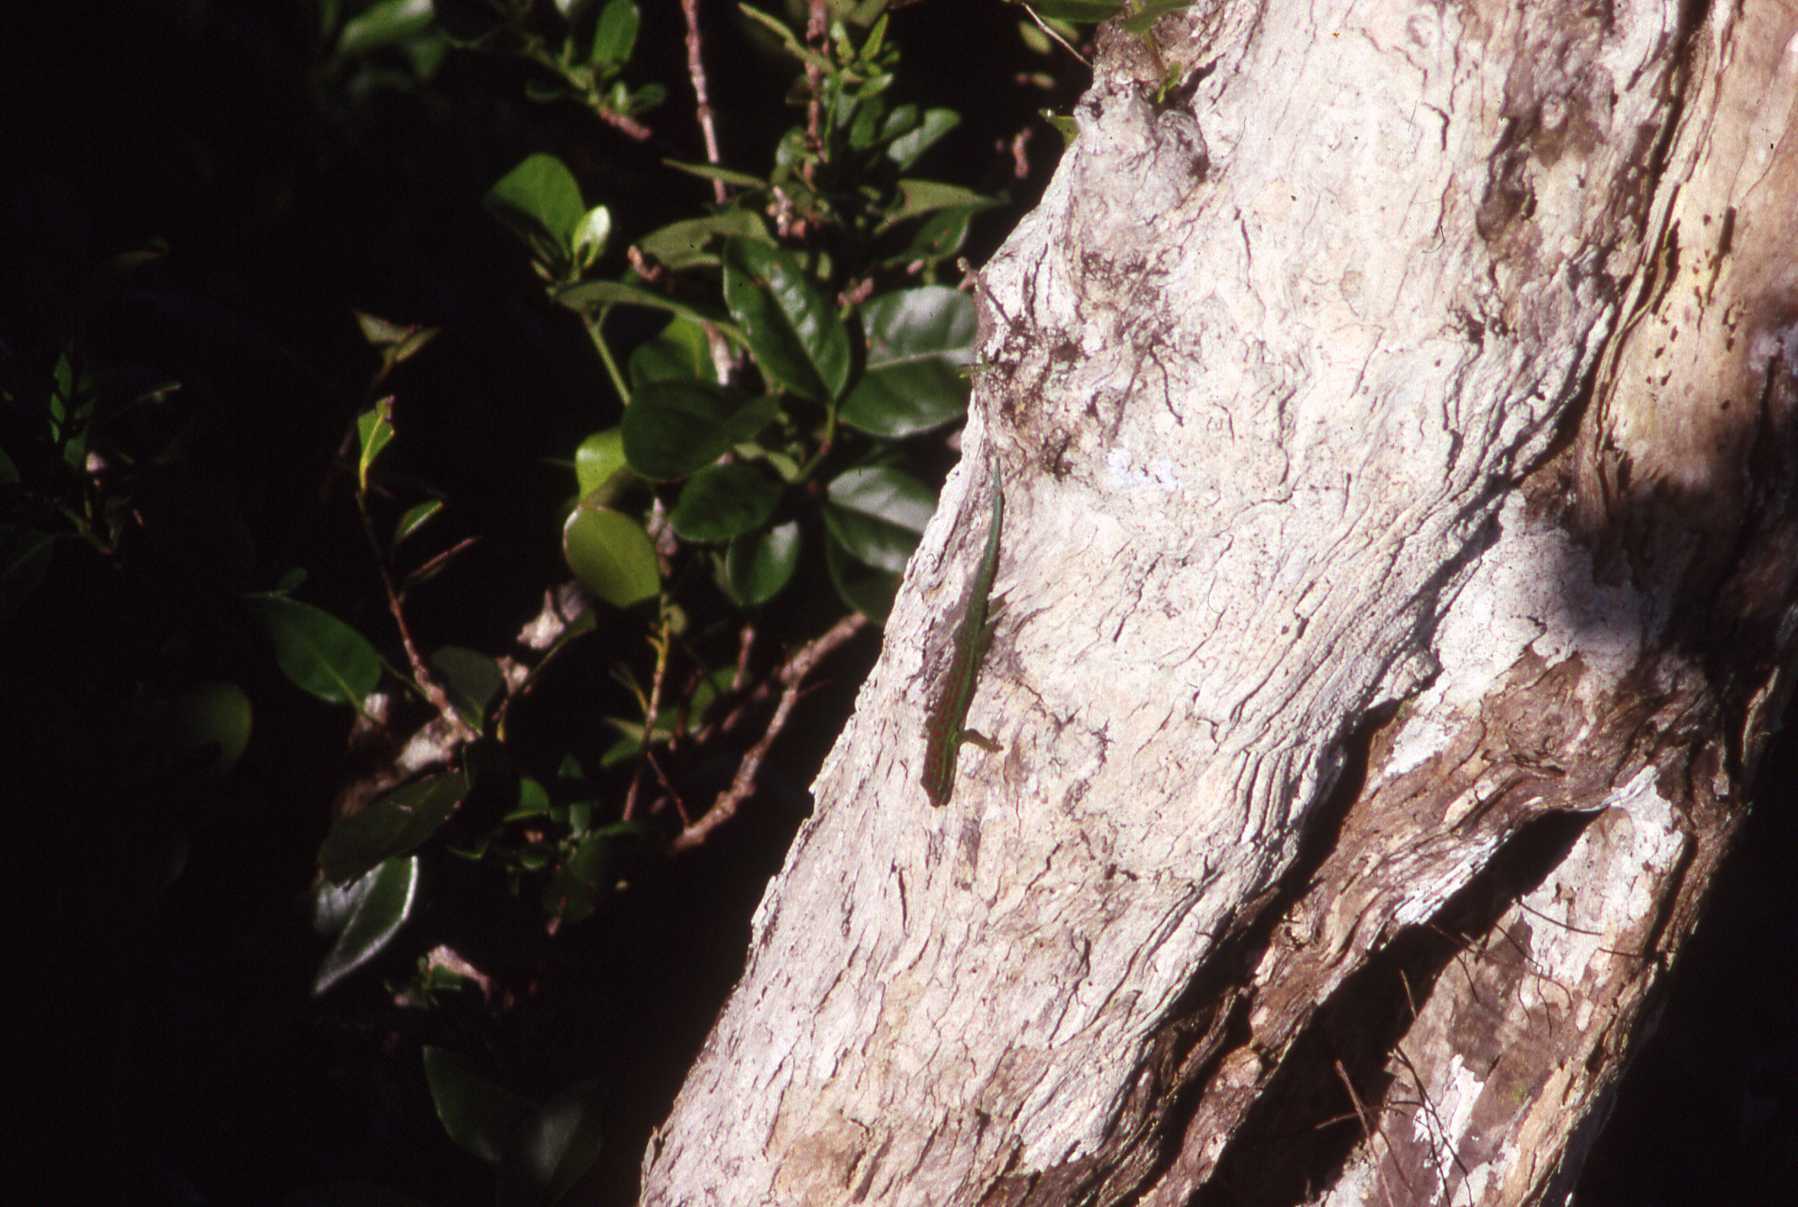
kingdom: Animalia
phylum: Chordata
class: Squamata
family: Gekkonidae
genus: Phelsuma
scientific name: Phelsuma cepediana
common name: Bluetail day gecko
